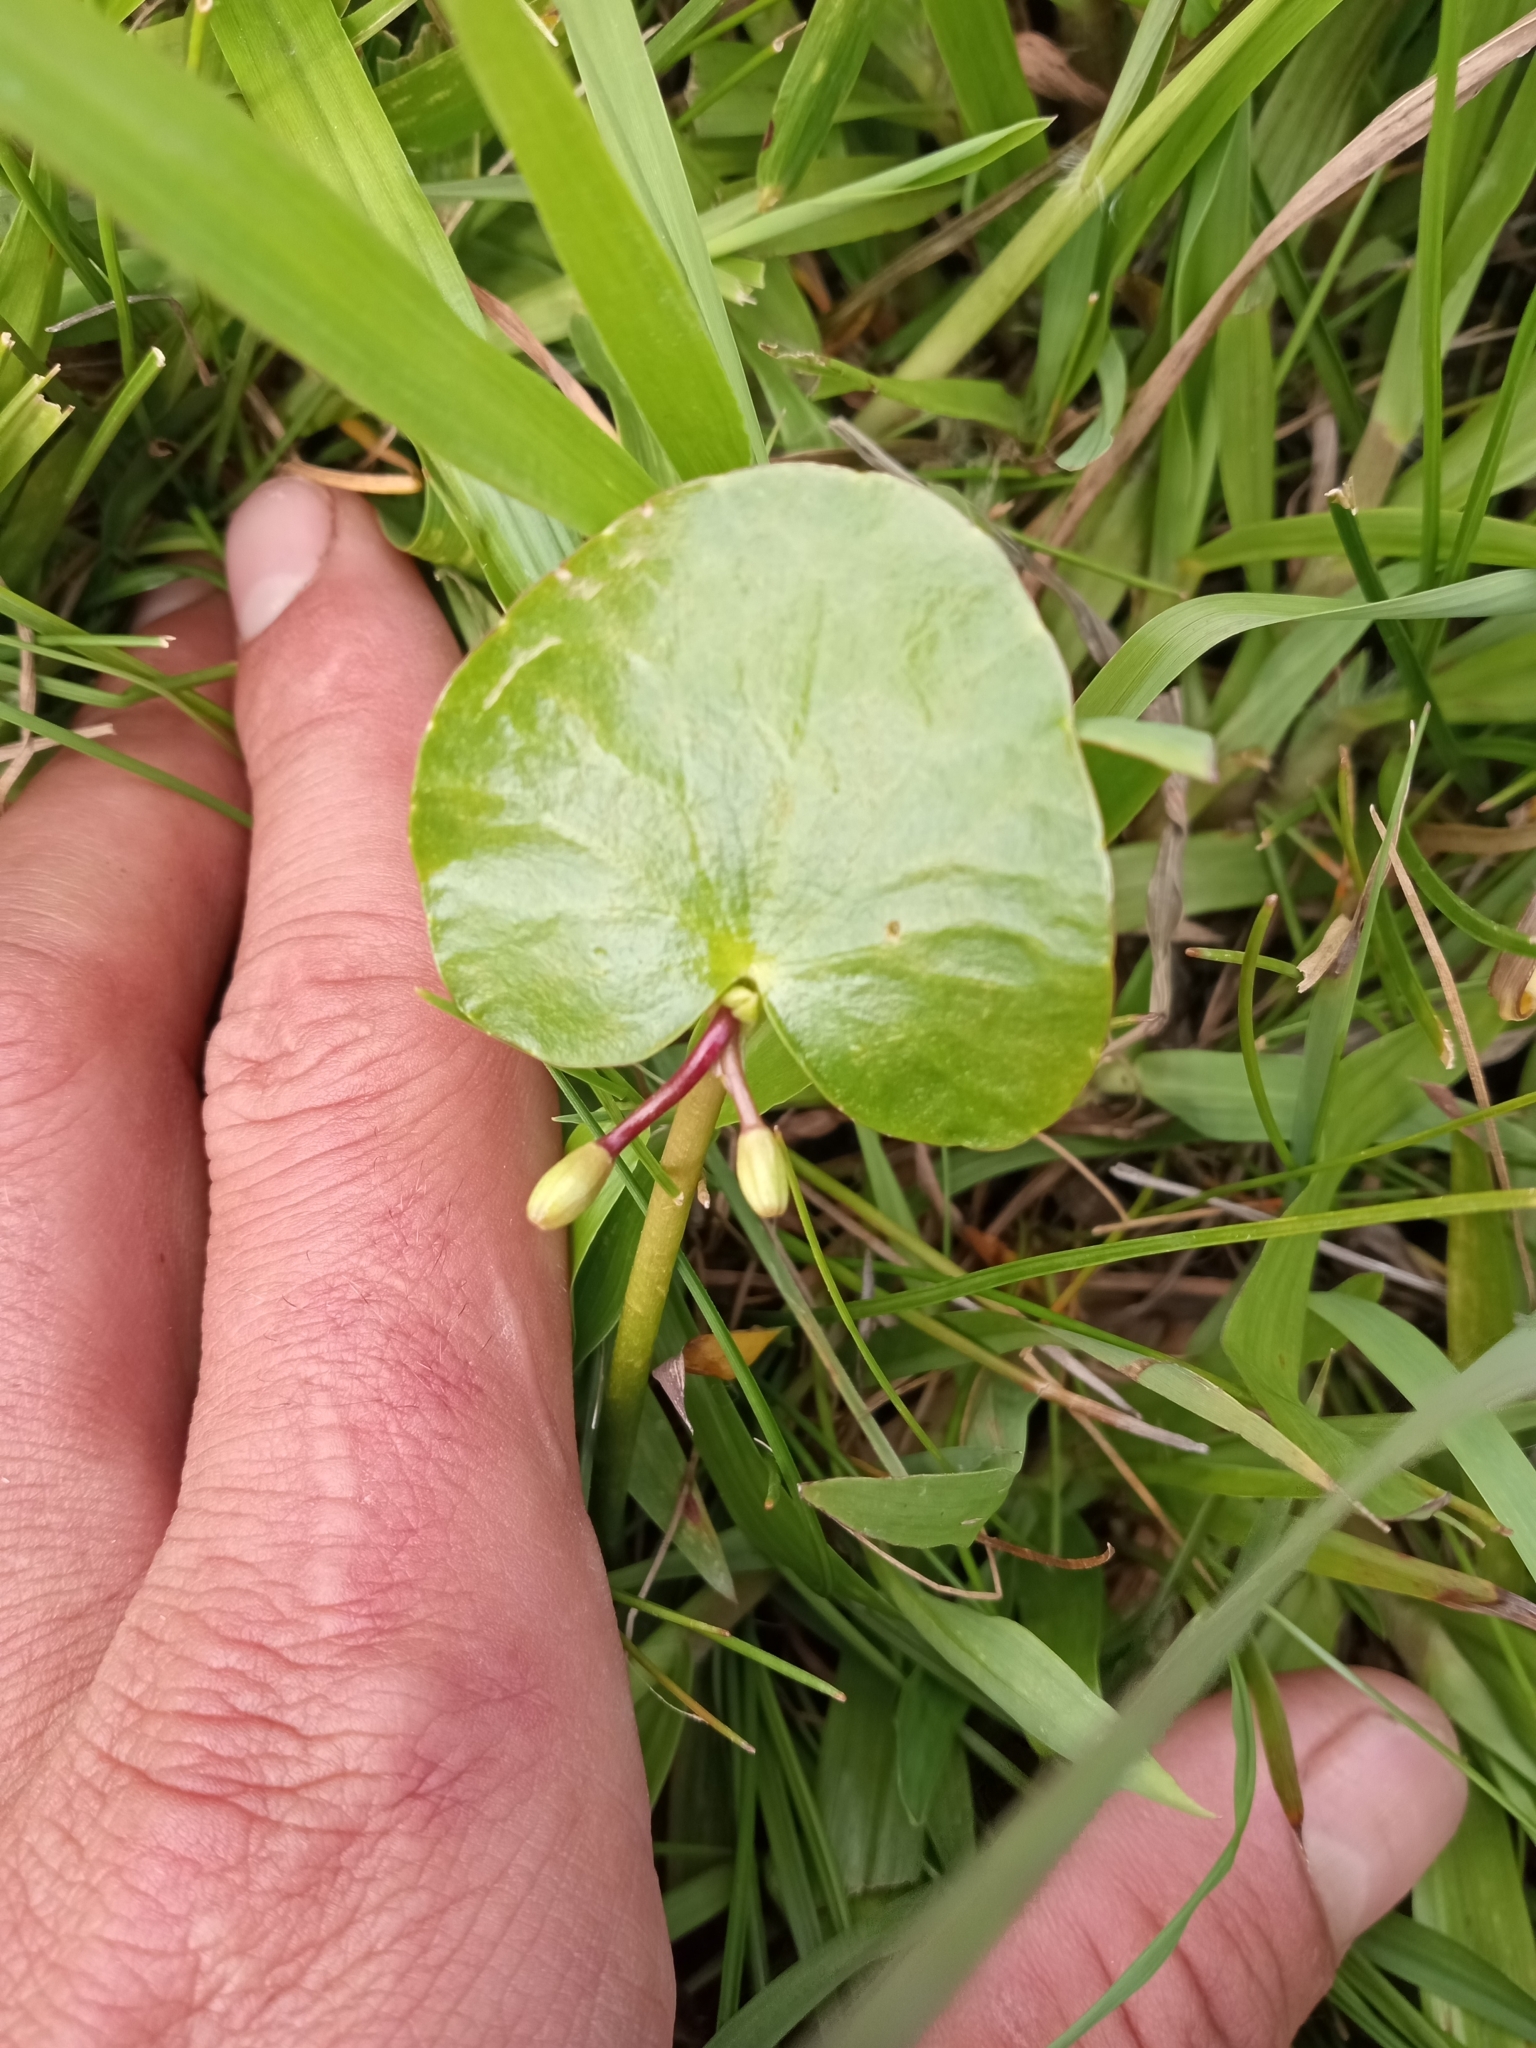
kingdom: Plantae
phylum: Tracheophyta
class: Magnoliopsida
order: Asterales
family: Menyanthaceae
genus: Nymphoides
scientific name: Nymphoides humboldtiana
